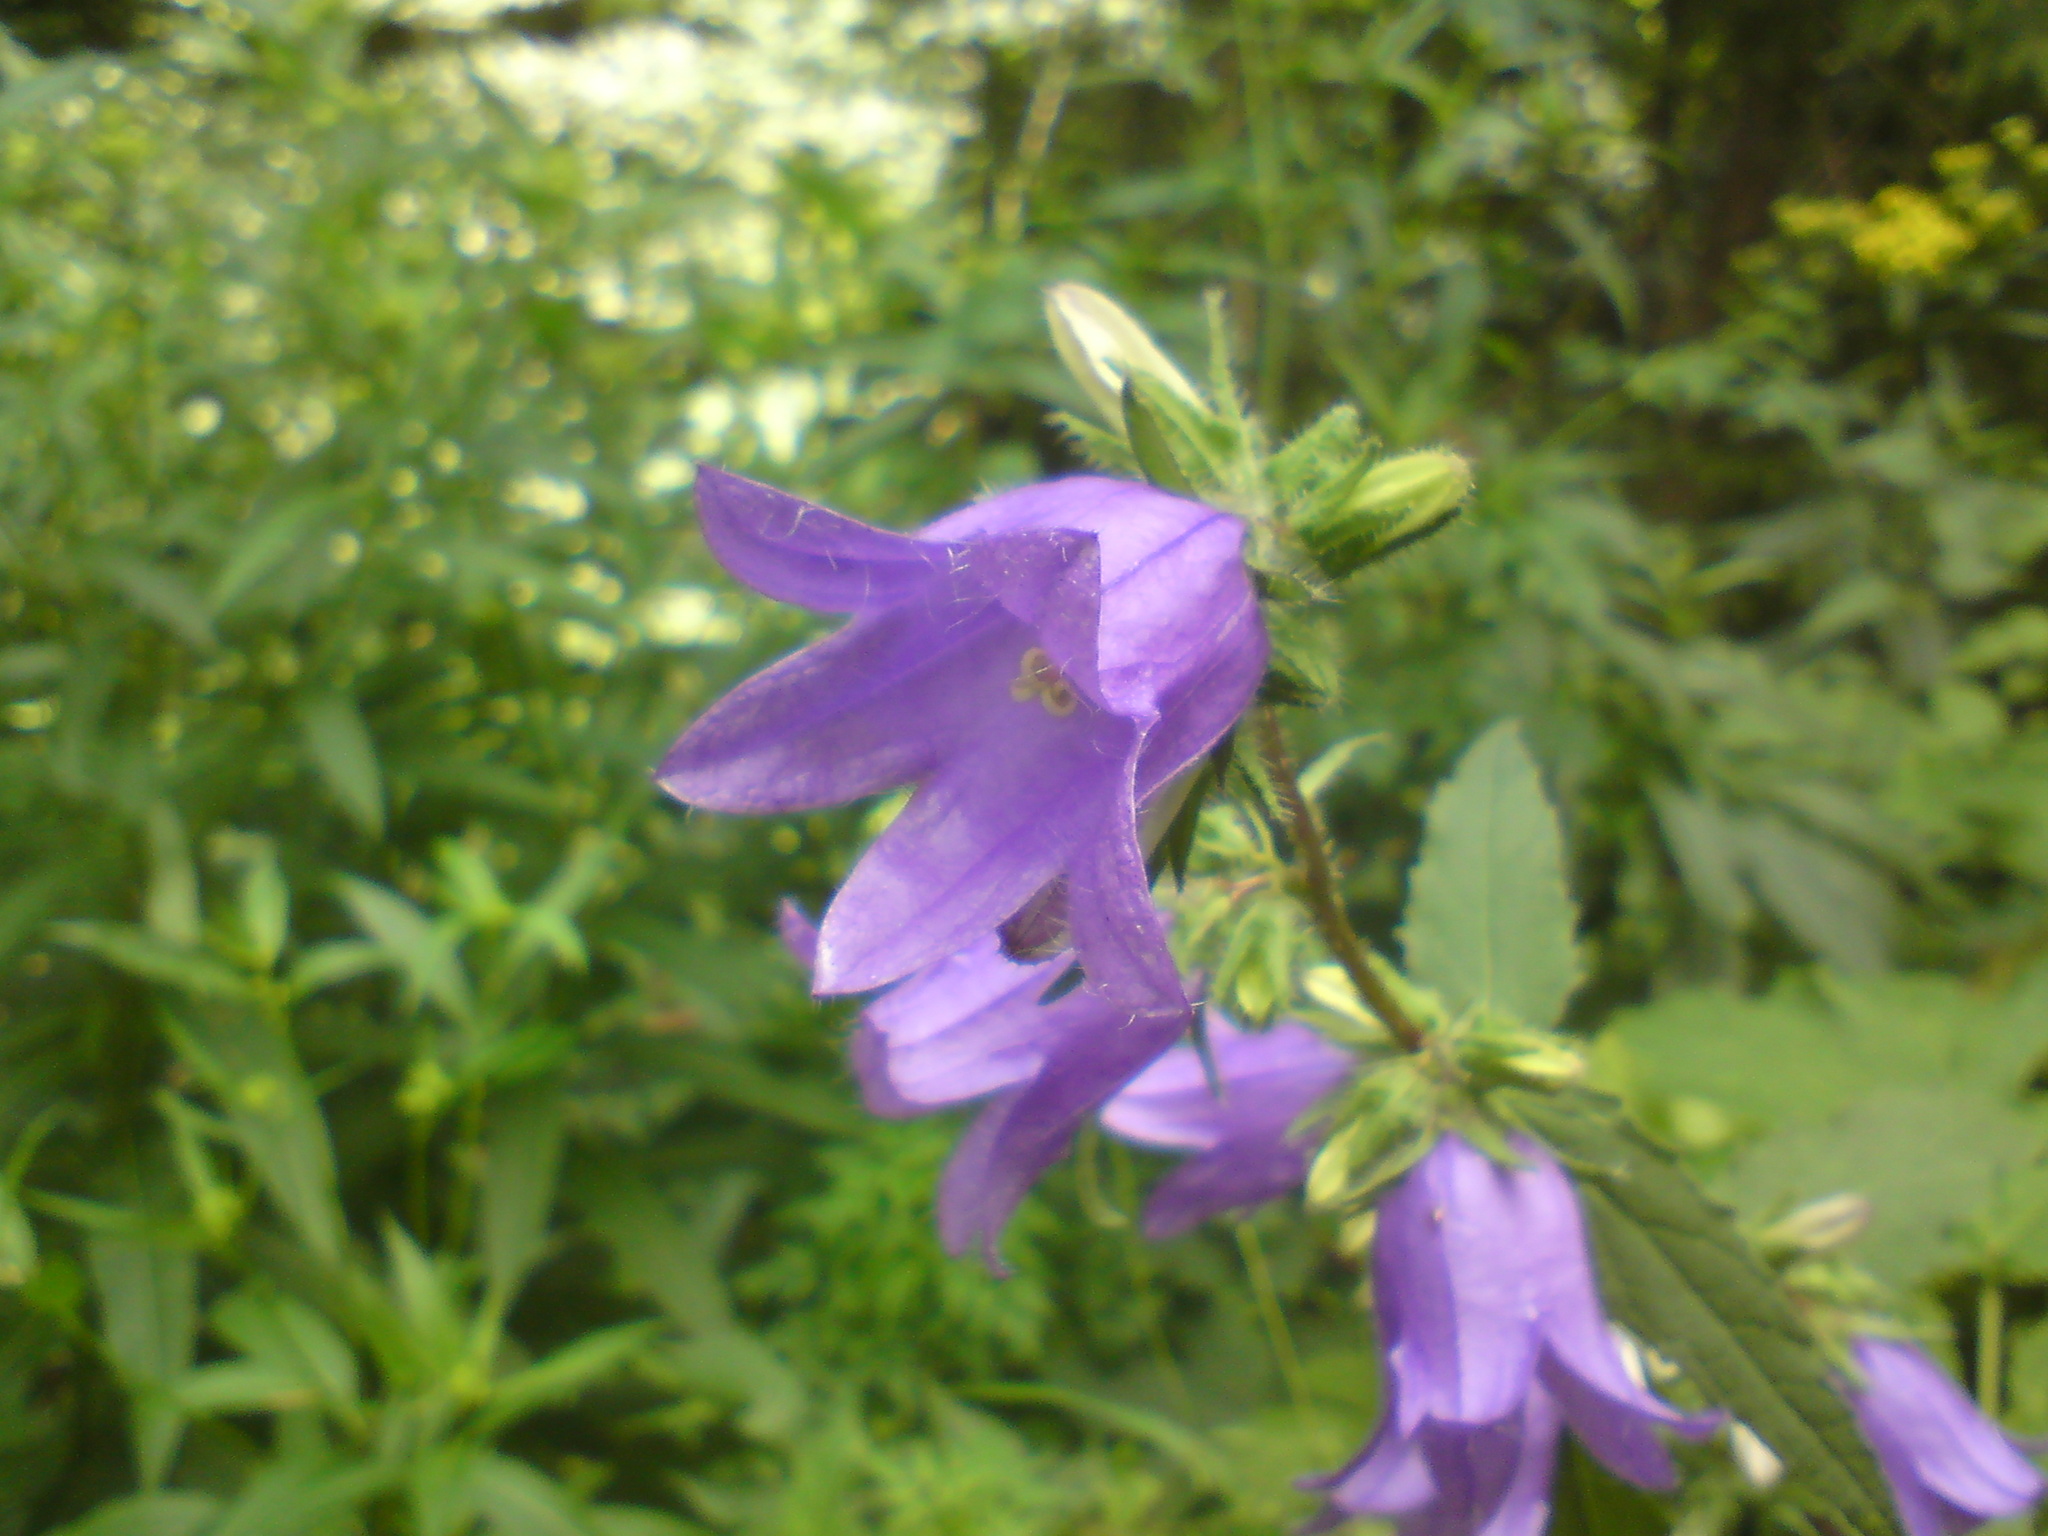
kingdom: Plantae
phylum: Tracheophyta
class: Magnoliopsida
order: Asterales
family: Campanulaceae
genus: Campanula
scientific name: Campanula trachelium
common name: Nettle-leaved bellflower
